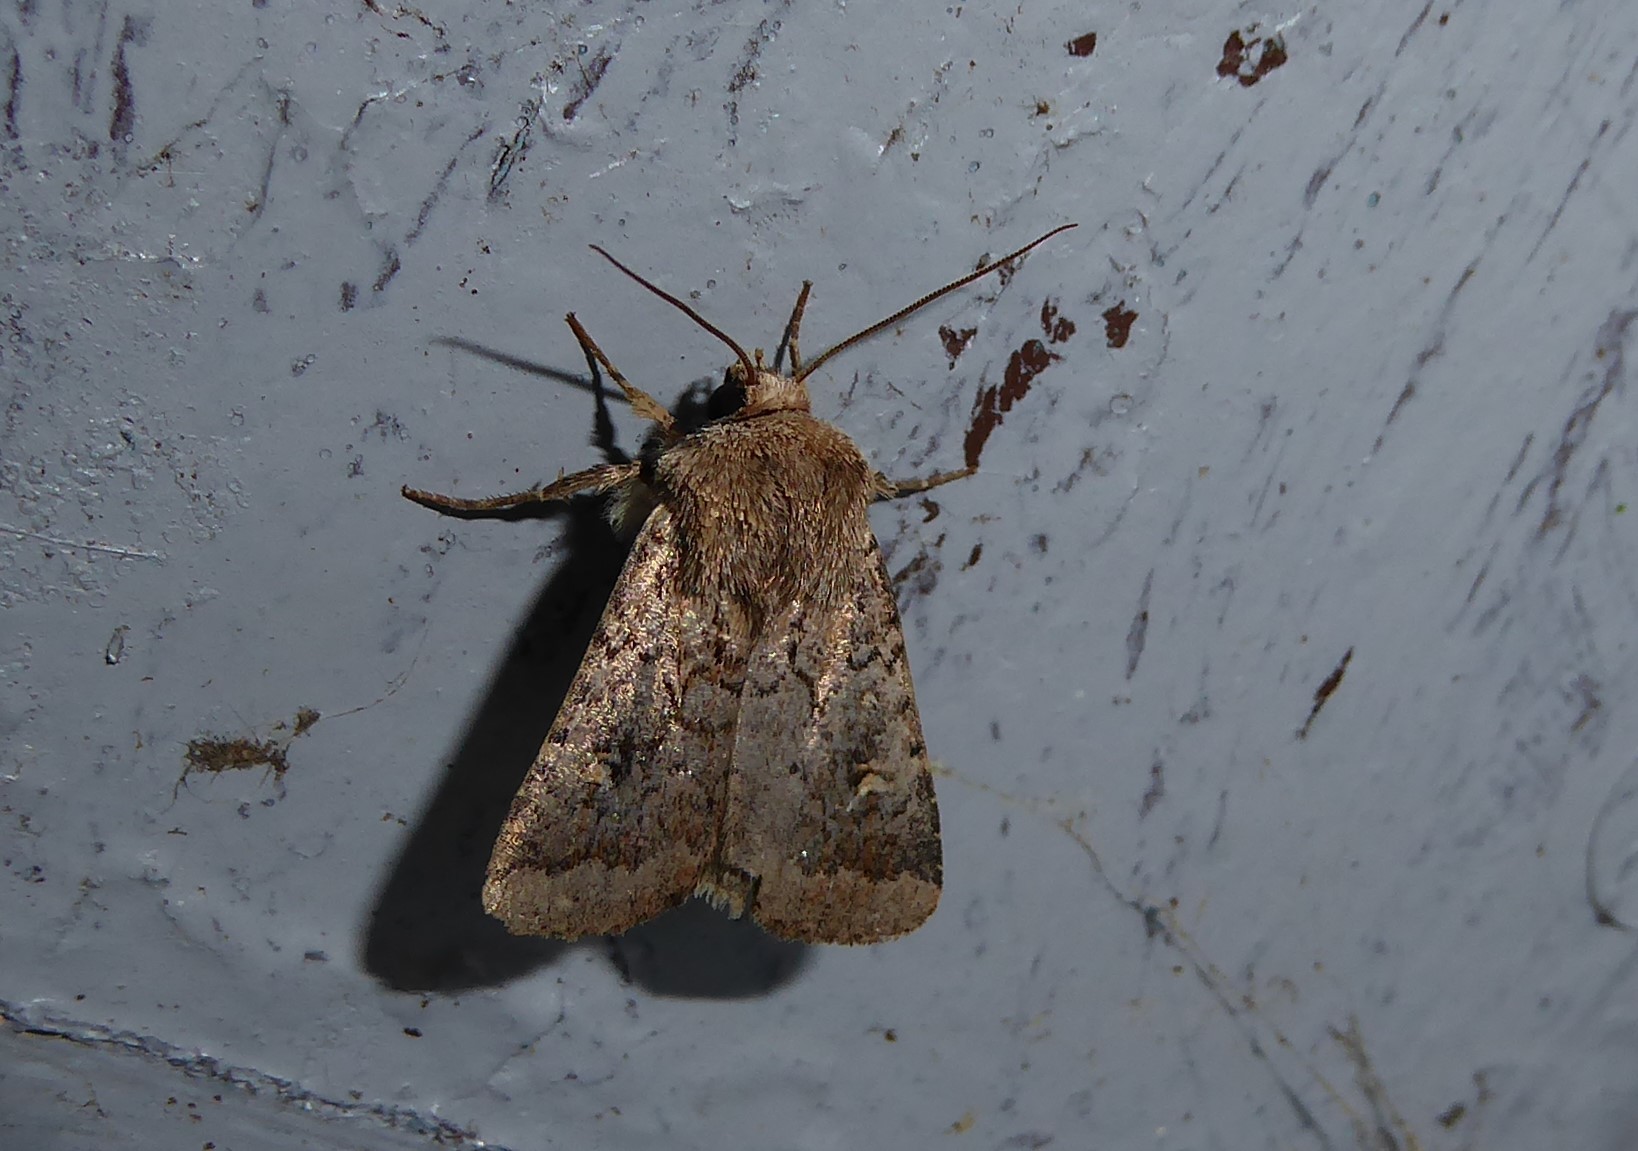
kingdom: Animalia
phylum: Arthropoda
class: Insecta
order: Lepidoptera
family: Noctuidae
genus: Proteuxoa
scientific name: Proteuxoa tetronycha
